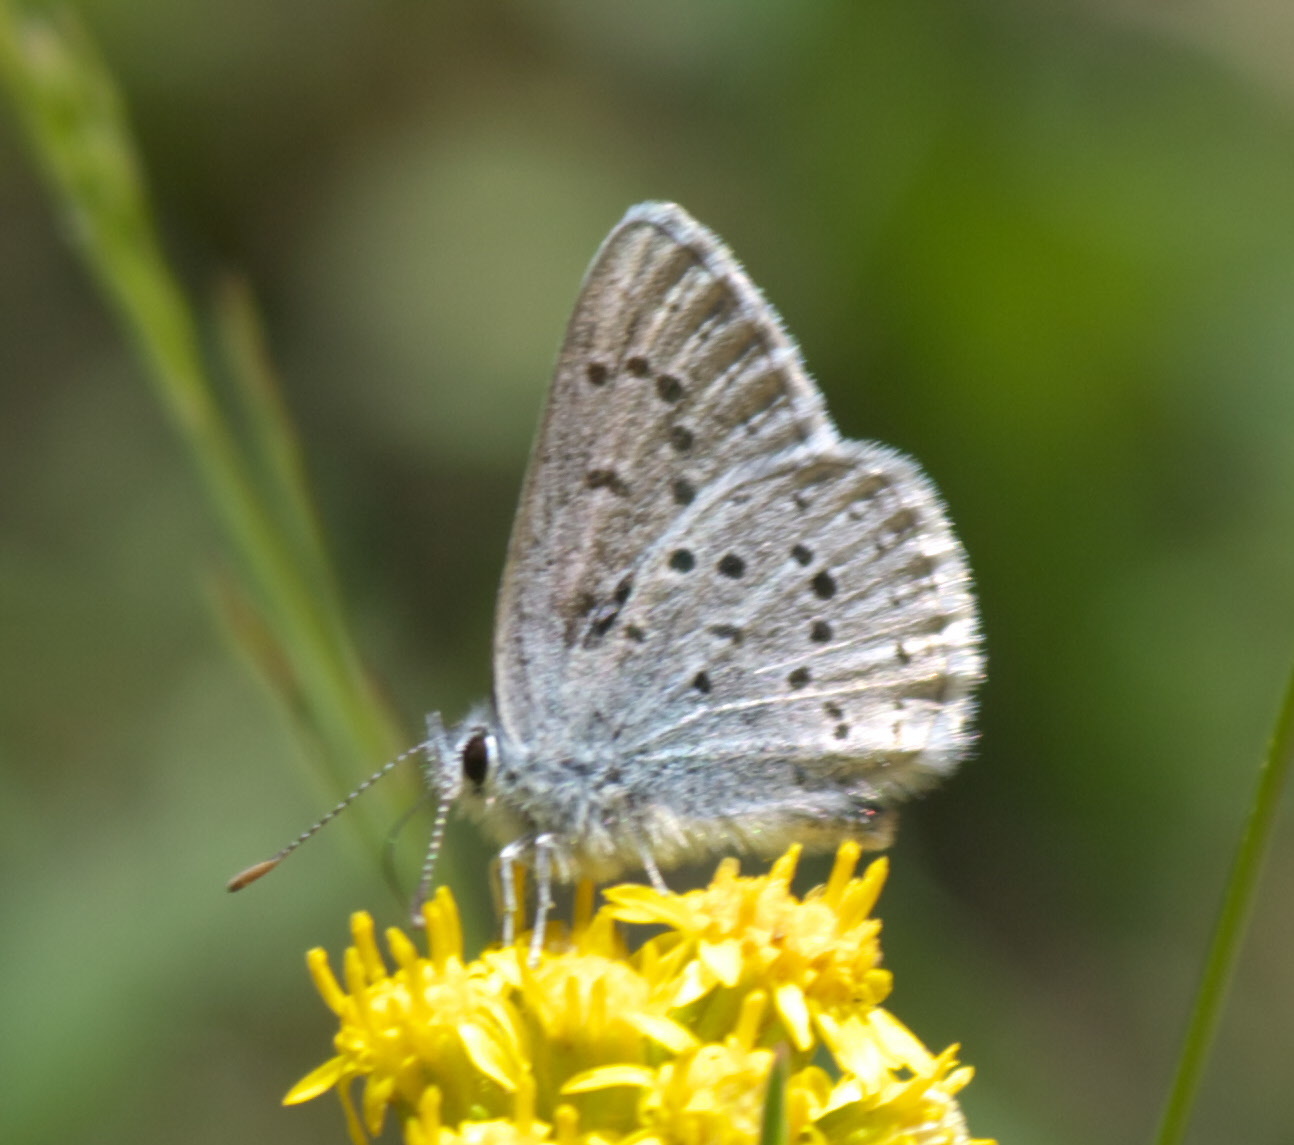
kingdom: Animalia
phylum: Arthropoda
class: Insecta
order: Lepidoptera
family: Lycaenidae
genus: Icaricia
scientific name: Icaricia saepiolus
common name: Greenish blue
